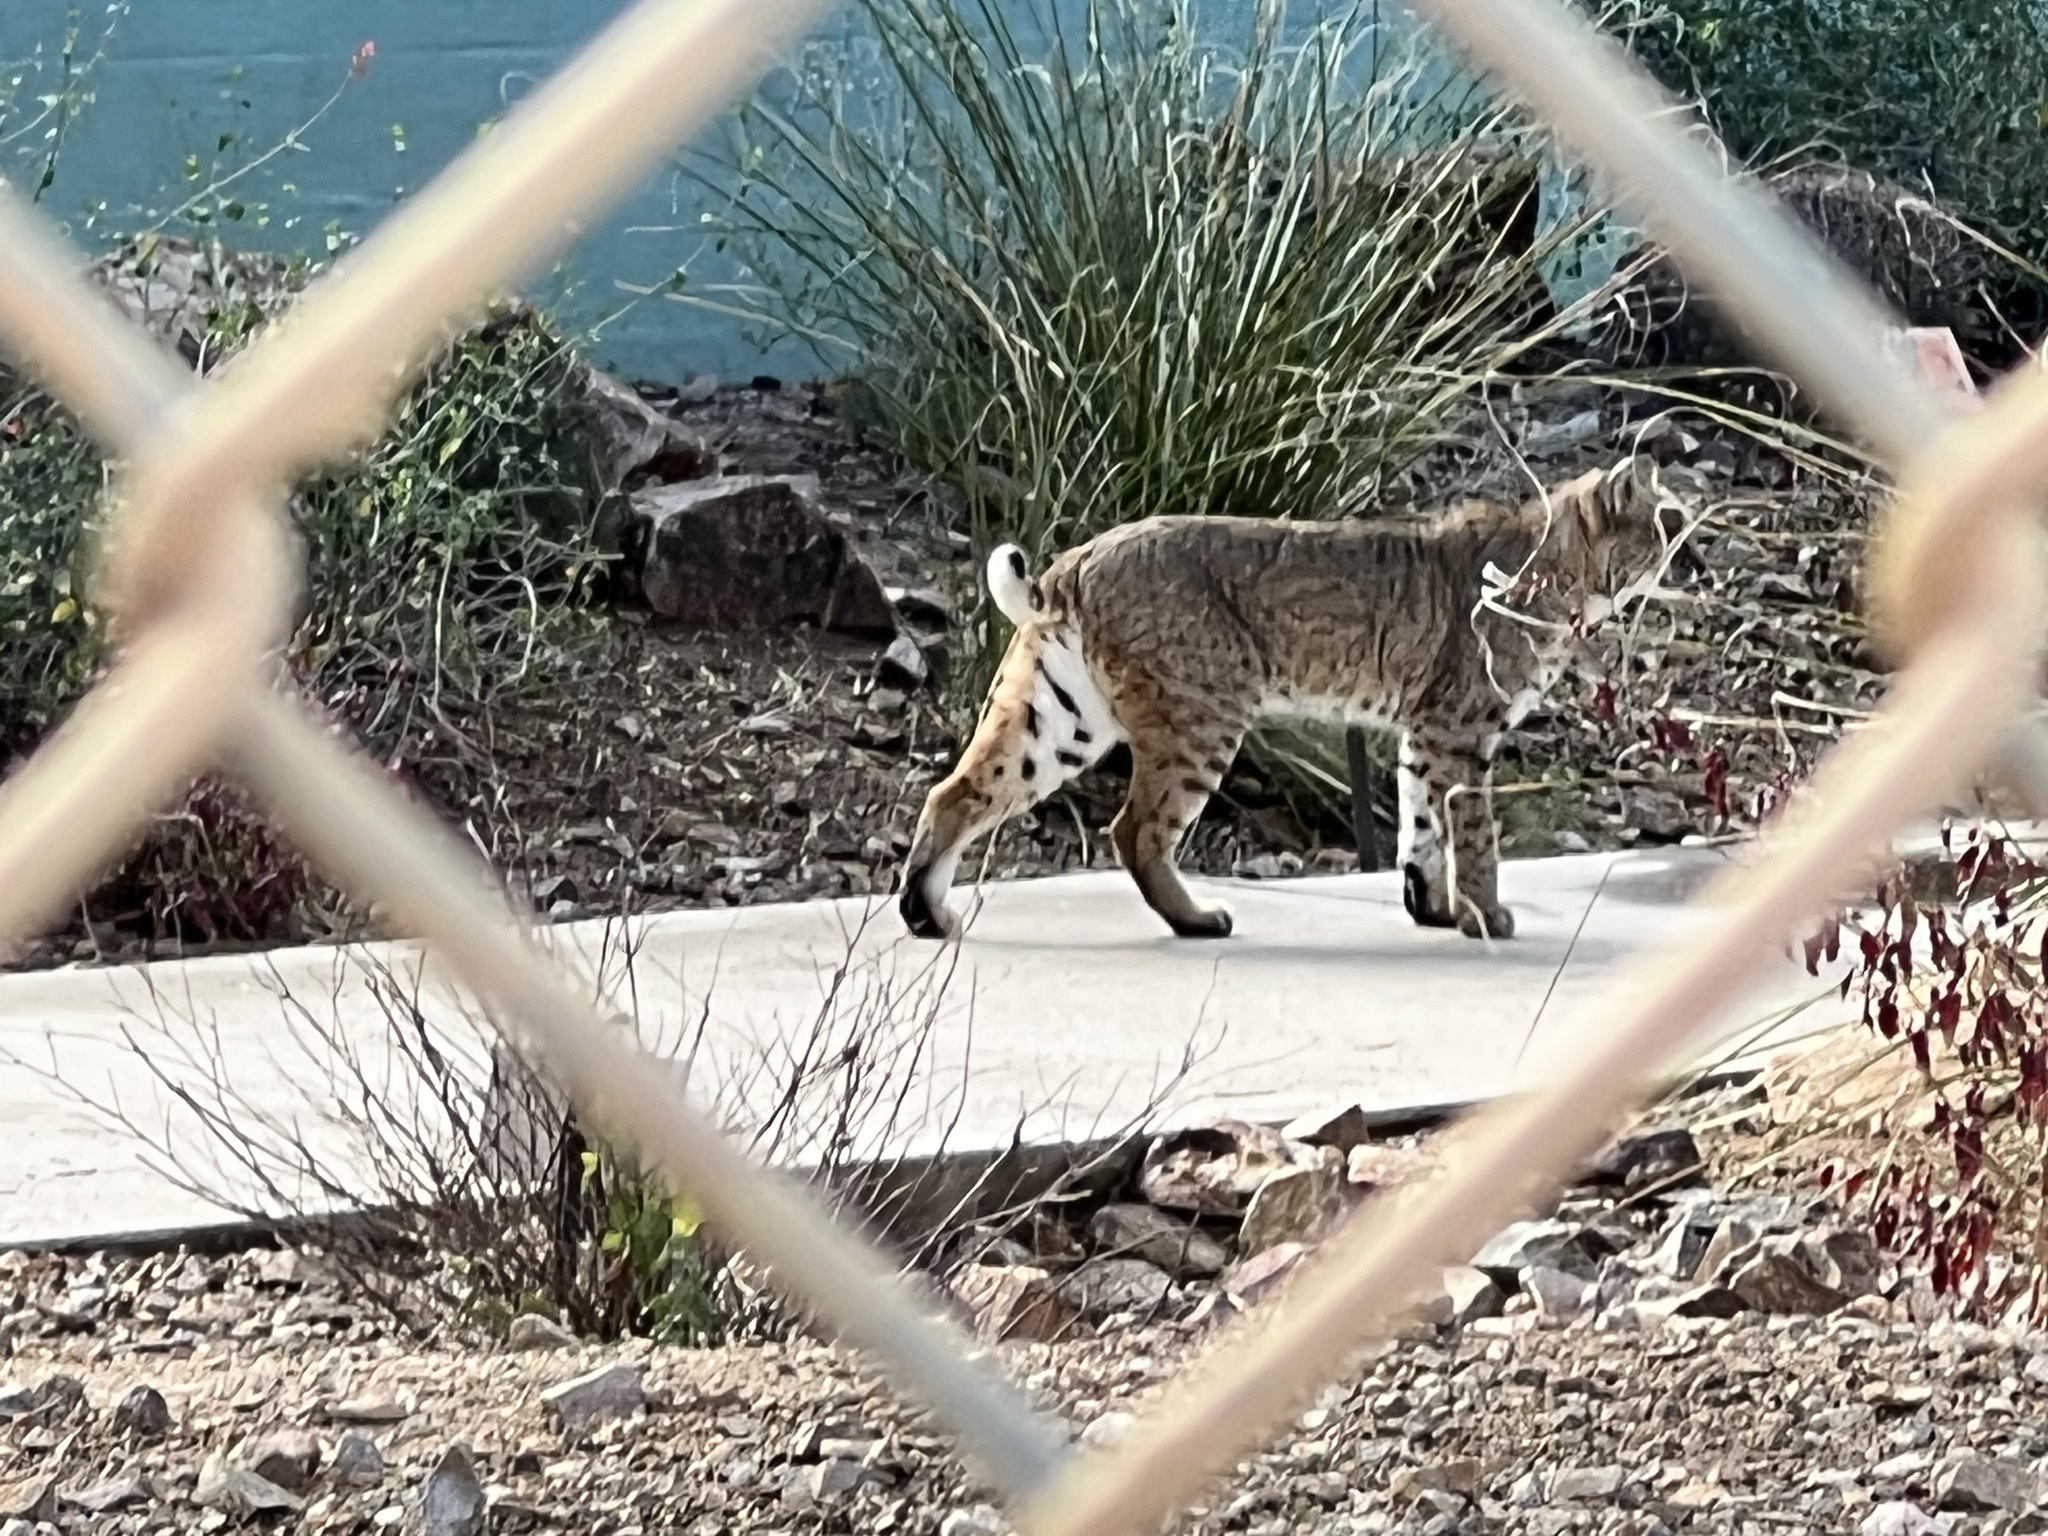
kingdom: Animalia
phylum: Chordata
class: Mammalia
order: Carnivora
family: Felidae
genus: Lynx
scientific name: Lynx rufus
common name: Bobcat
